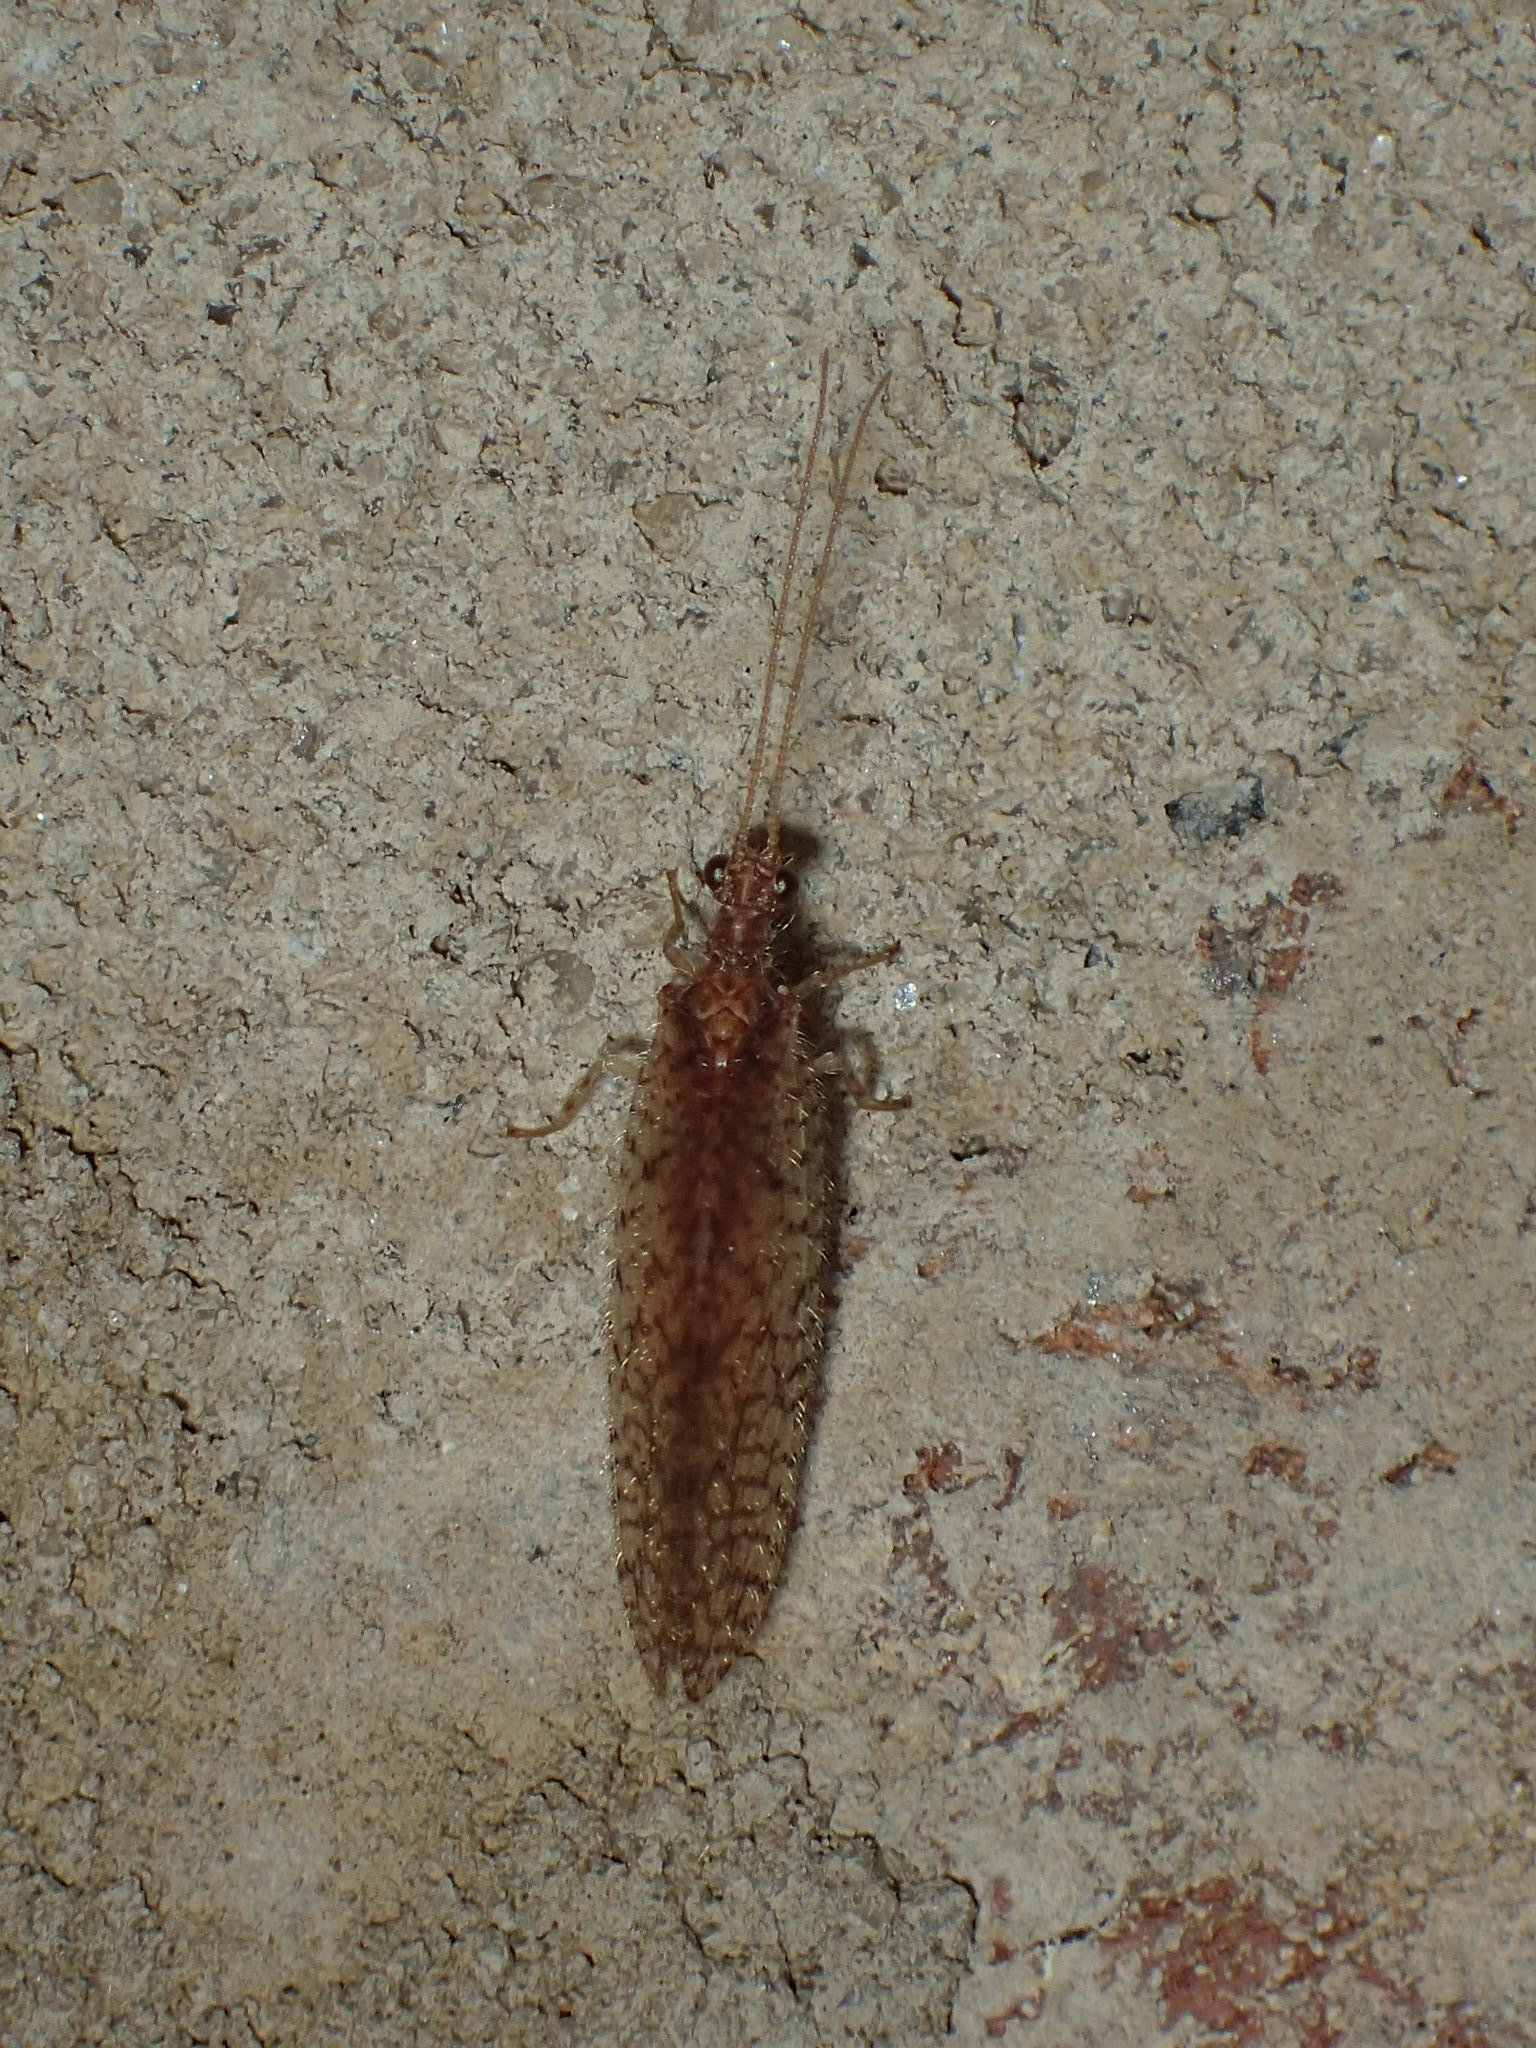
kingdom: Animalia
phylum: Arthropoda
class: Insecta
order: Neuroptera
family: Hemerobiidae
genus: Micromus
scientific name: Micromus posticus
